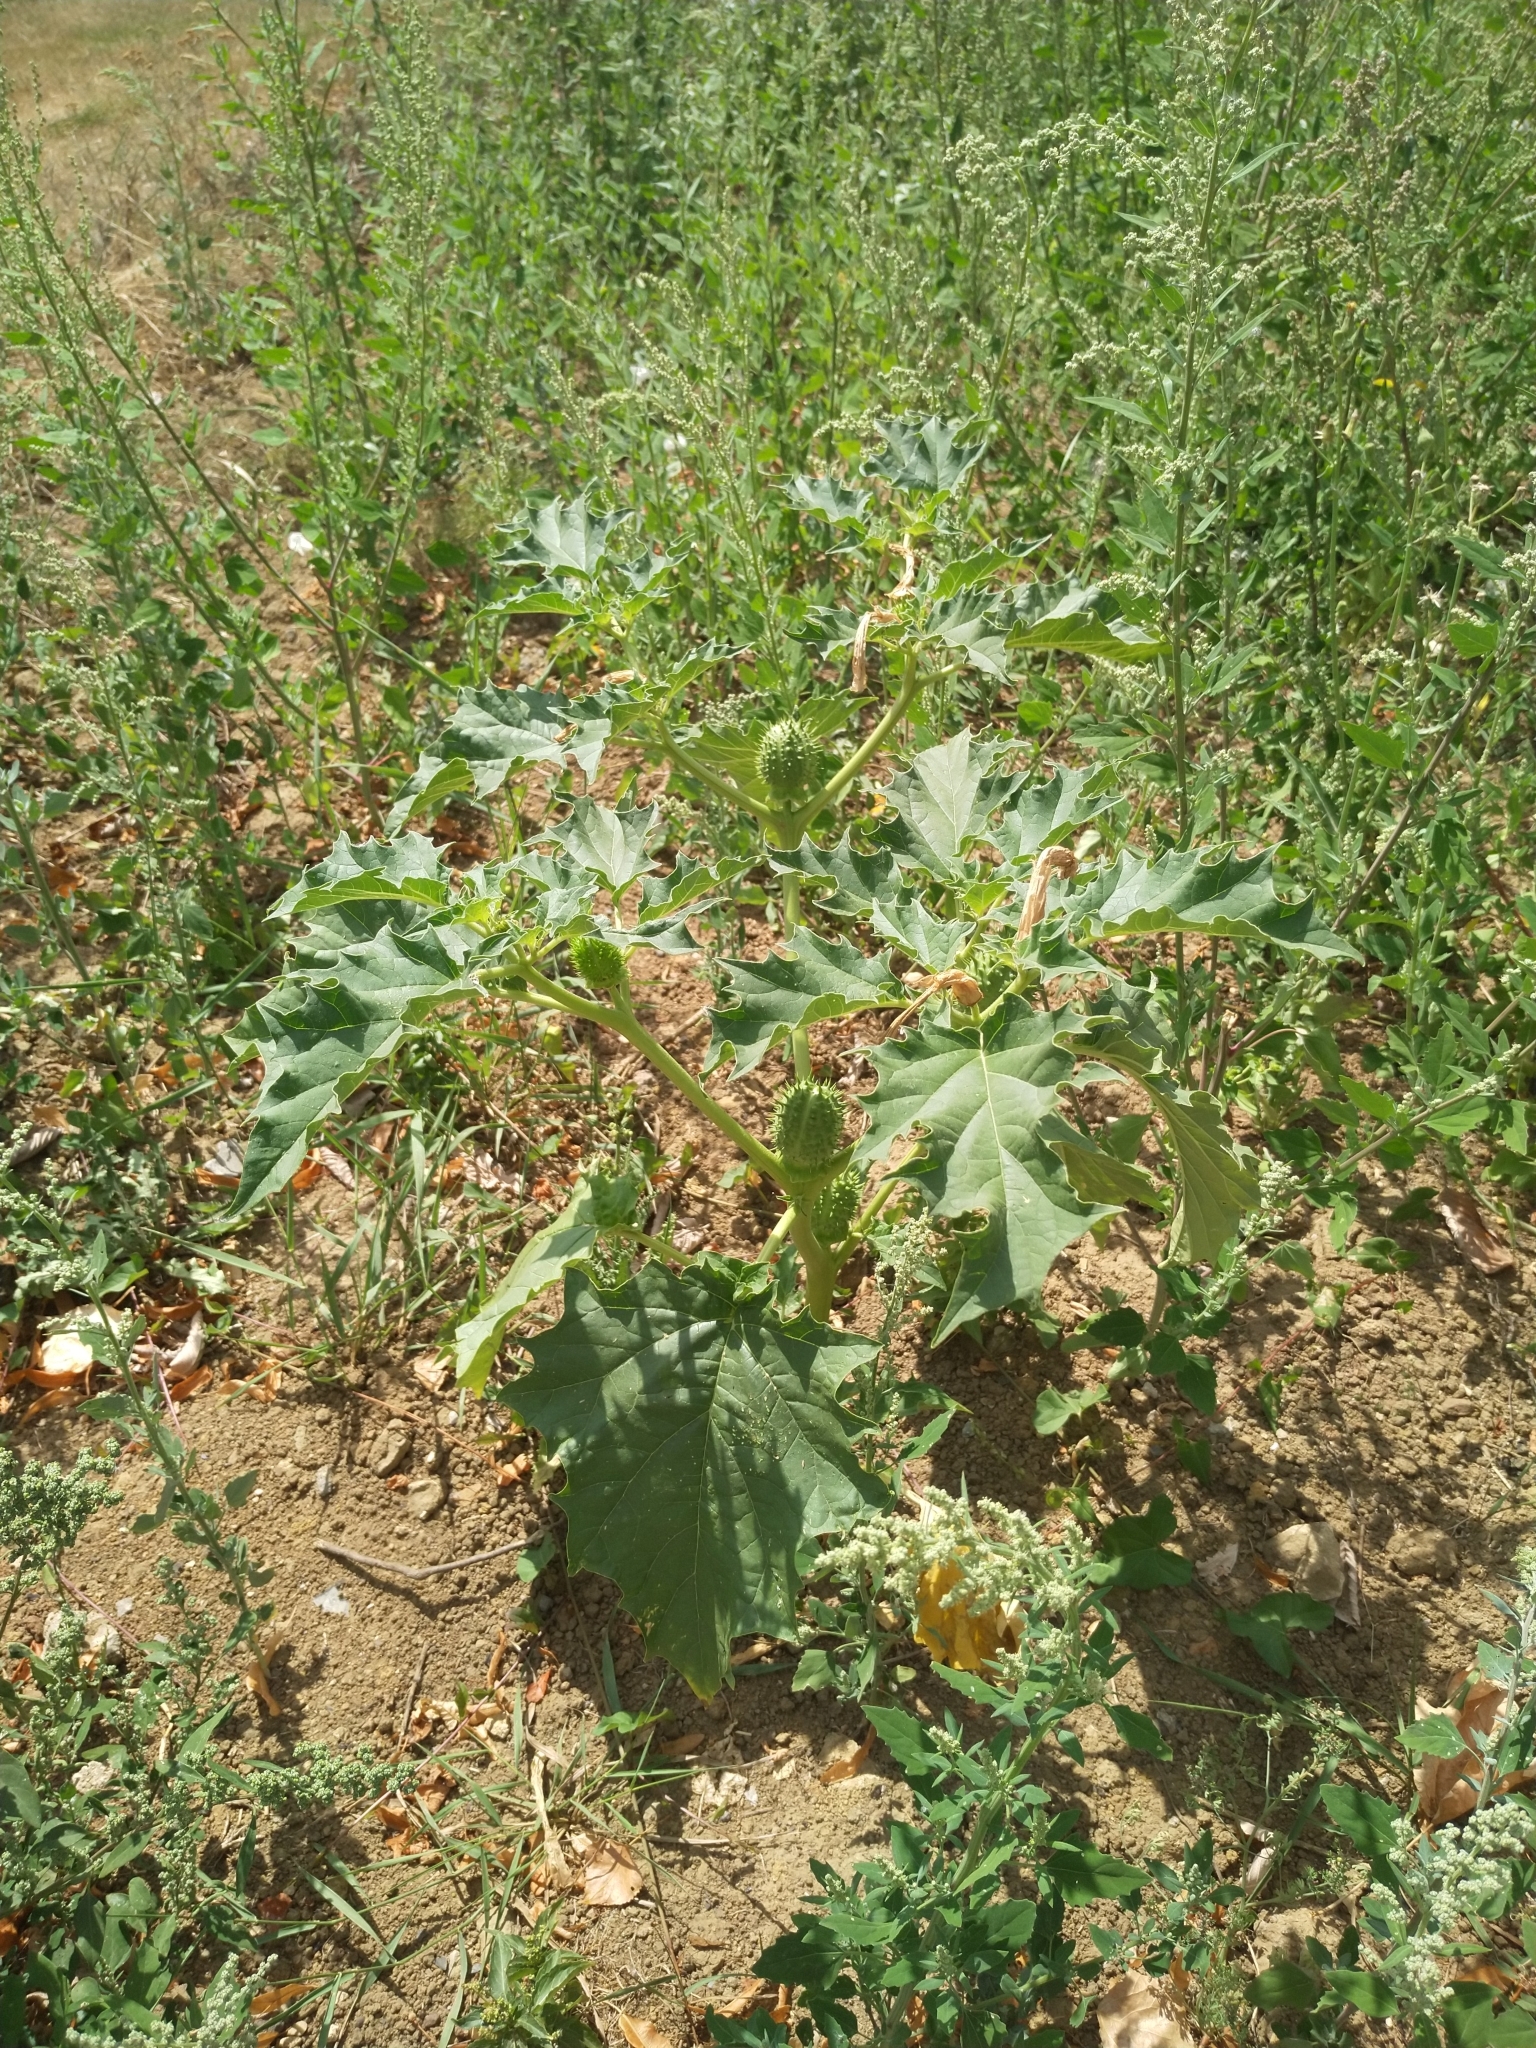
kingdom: Plantae
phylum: Tracheophyta
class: Magnoliopsida
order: Solanales
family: Solanaceae
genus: Datura
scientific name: Datura stramonium
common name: Thorn-apple
